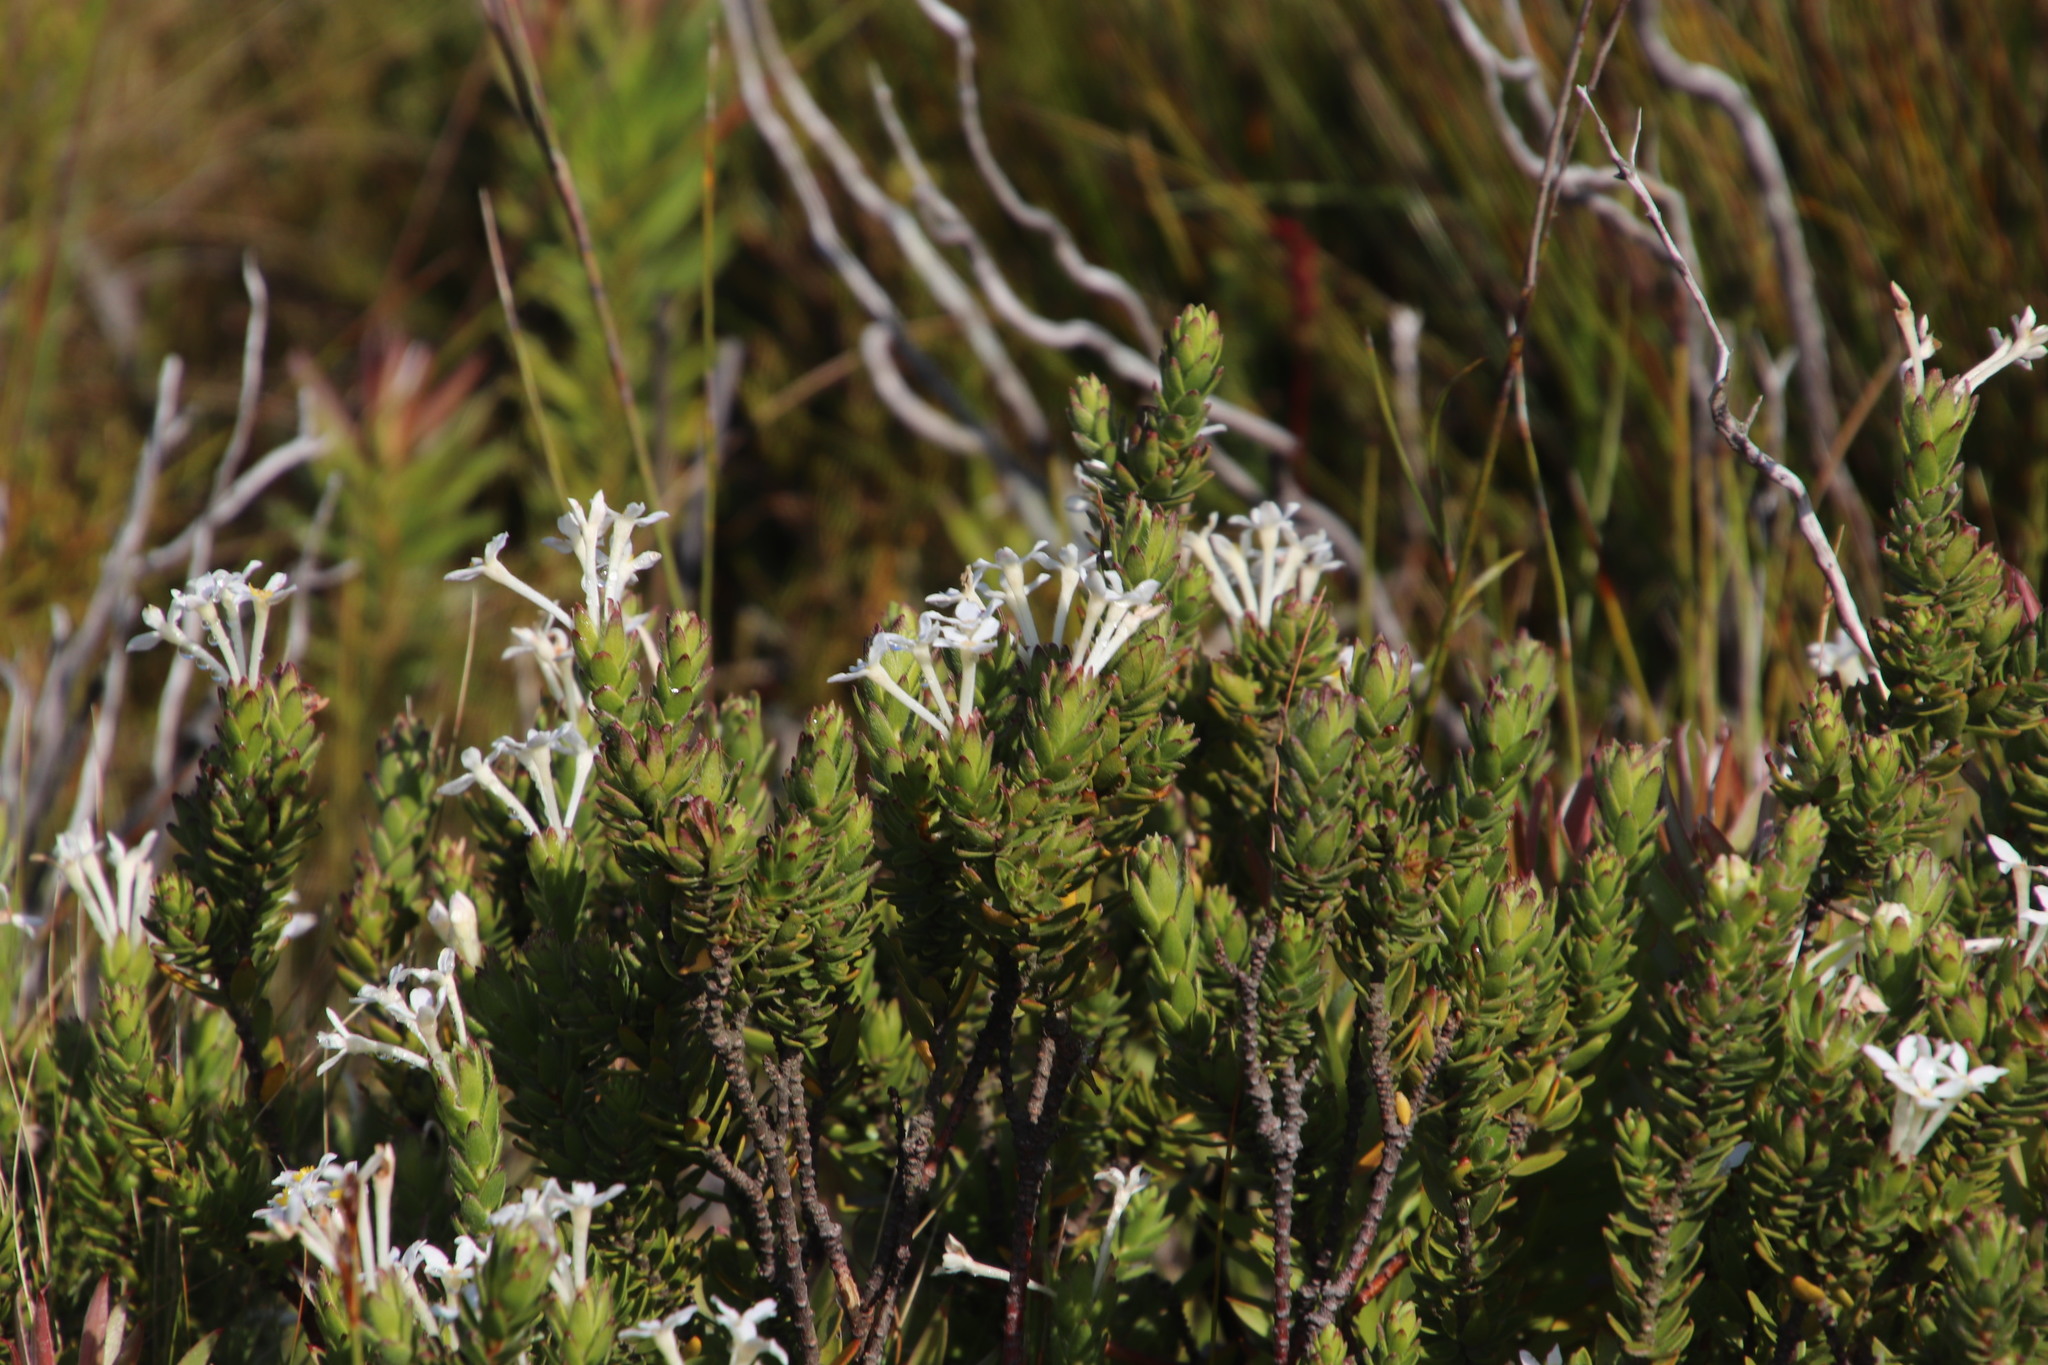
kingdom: Plantae
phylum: Tracheophyta
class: Magnoliopsida
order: Malvales
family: Thymelaeaceae
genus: Gnidia
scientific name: Gnidia tomentosa
